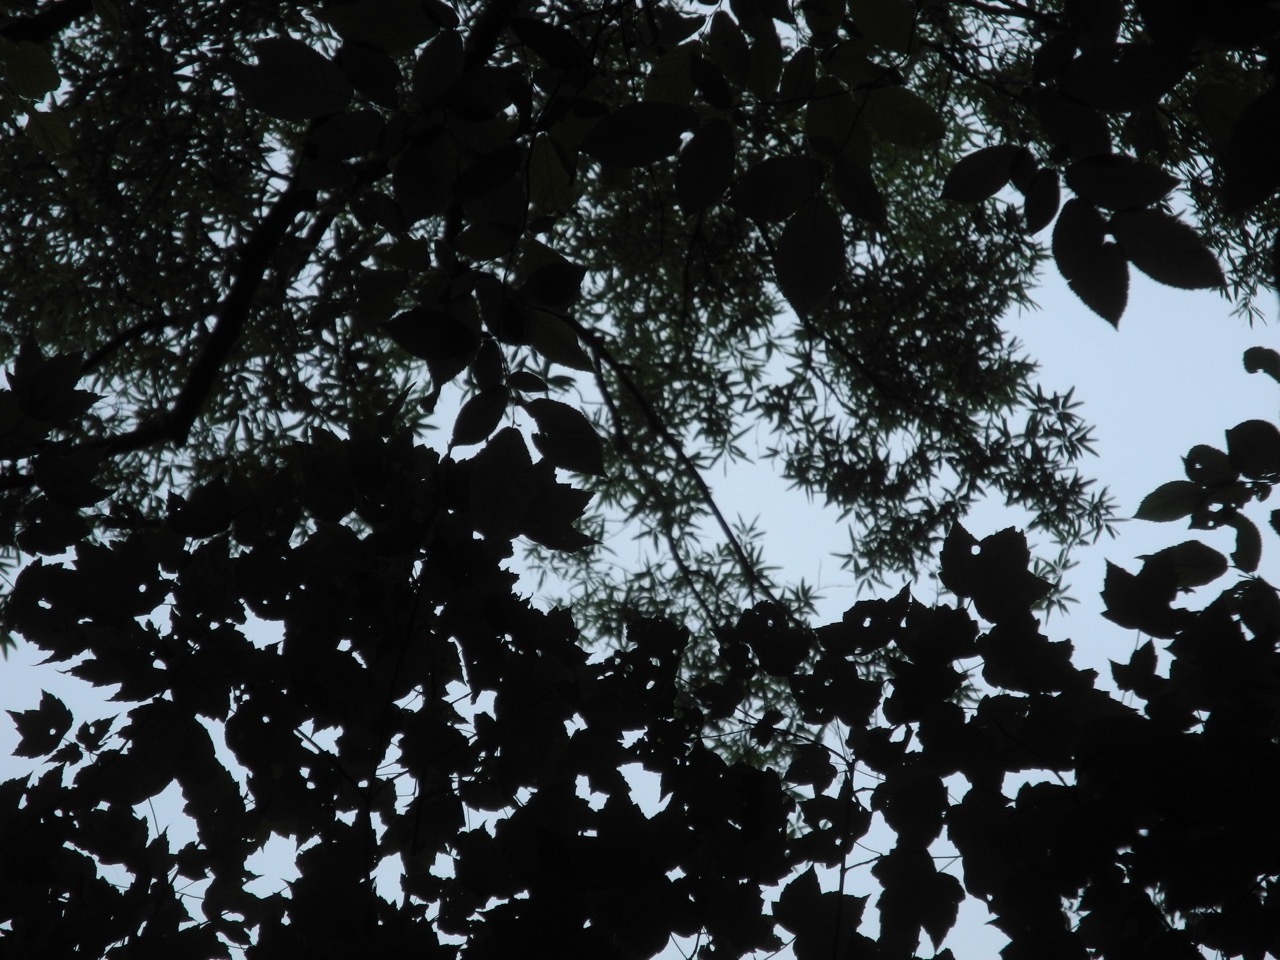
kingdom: Plantae
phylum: Tracheophyta
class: Magnoliopsida
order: Fagales
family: Fagaceae
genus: Quercus
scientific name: Quercus phellos
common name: Willow oak
